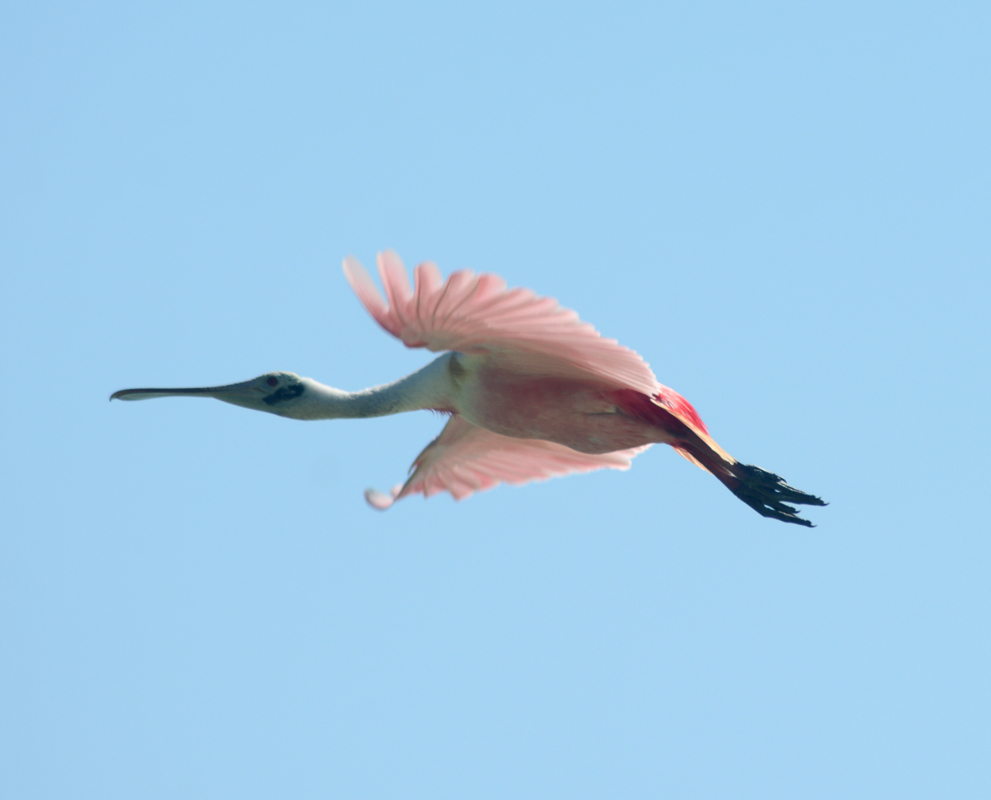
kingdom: Animalia
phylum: Chordata
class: Aves
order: Pelecaniformes
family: Threskiornithidae
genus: Platalea
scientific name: Platalea ajaja
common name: Roseate spoonbill
